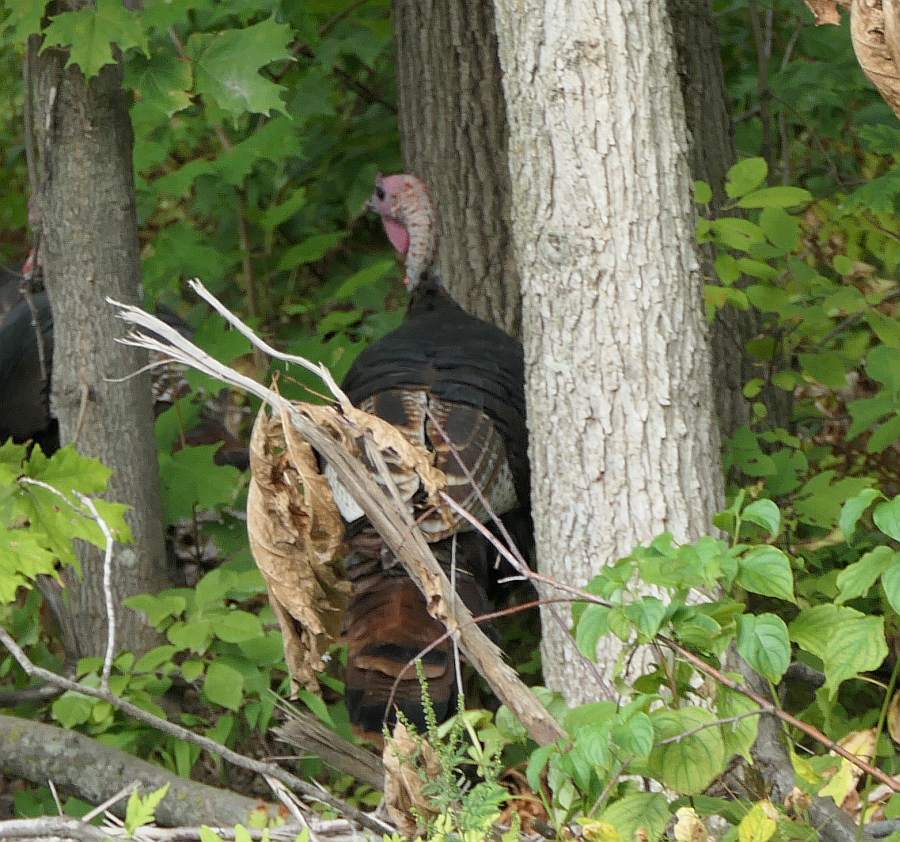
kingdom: Animalia
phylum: Chordata
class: Aves
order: Galliformes
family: Phasianidae
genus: Meleagris
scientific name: Meleagris gallopavo
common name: Wild turkey
